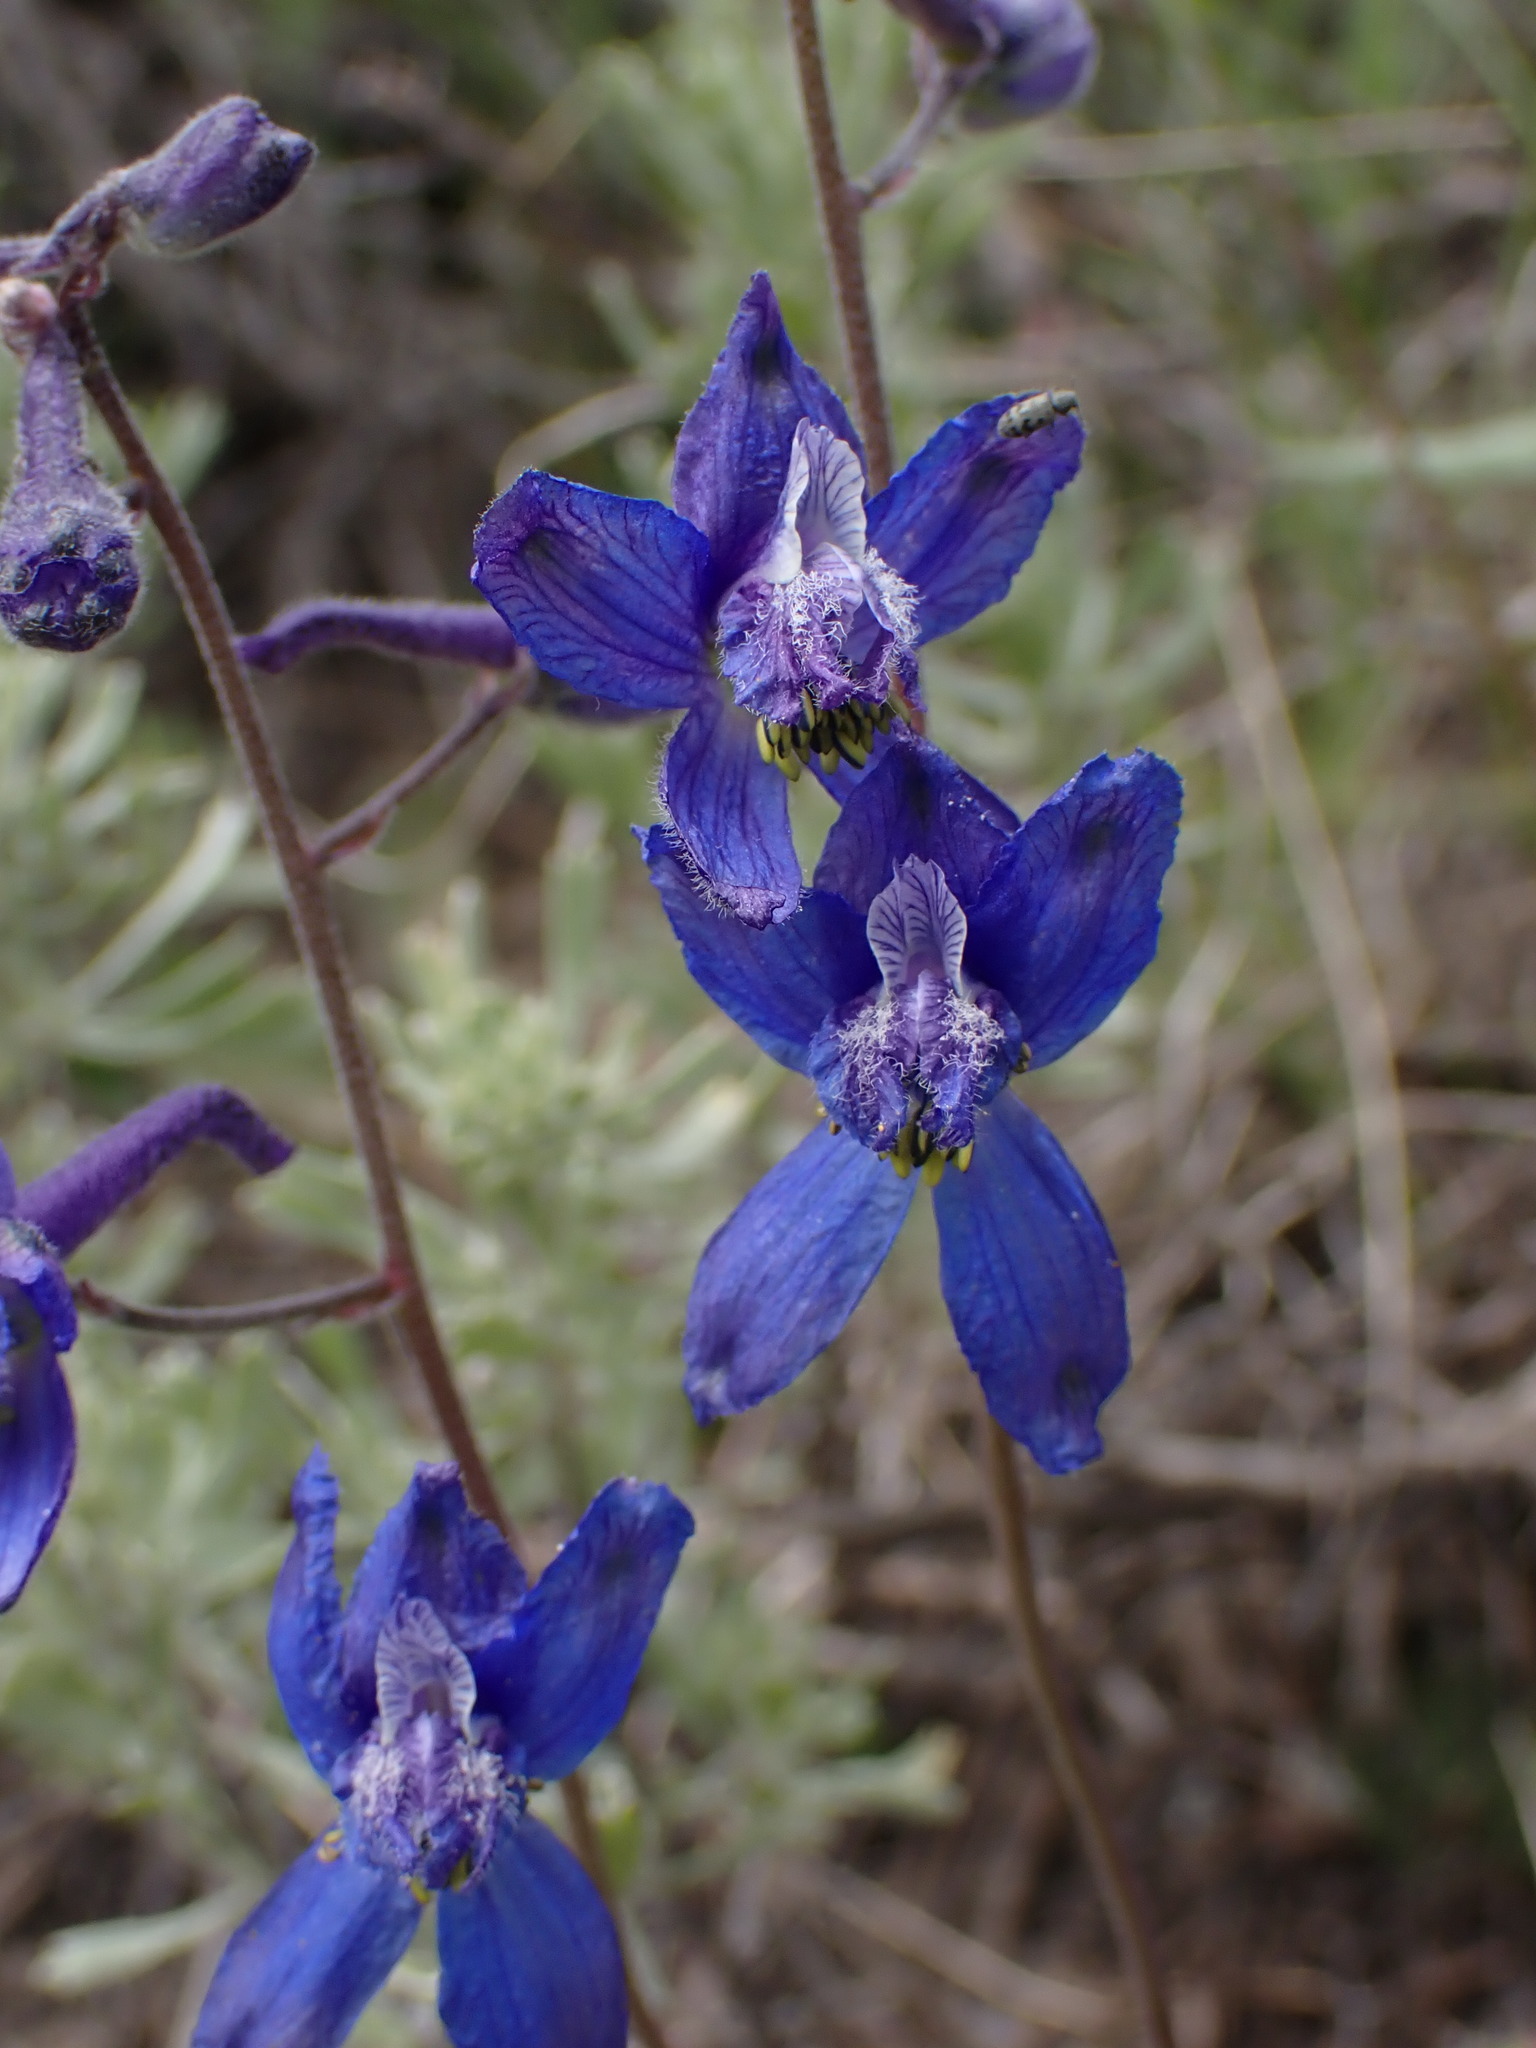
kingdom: Plantae
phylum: Tracheophyta
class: Magnoliopsida
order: Ranunculales
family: Ranunculaceae
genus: Delphinium
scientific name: Delphinium nuttallianum
